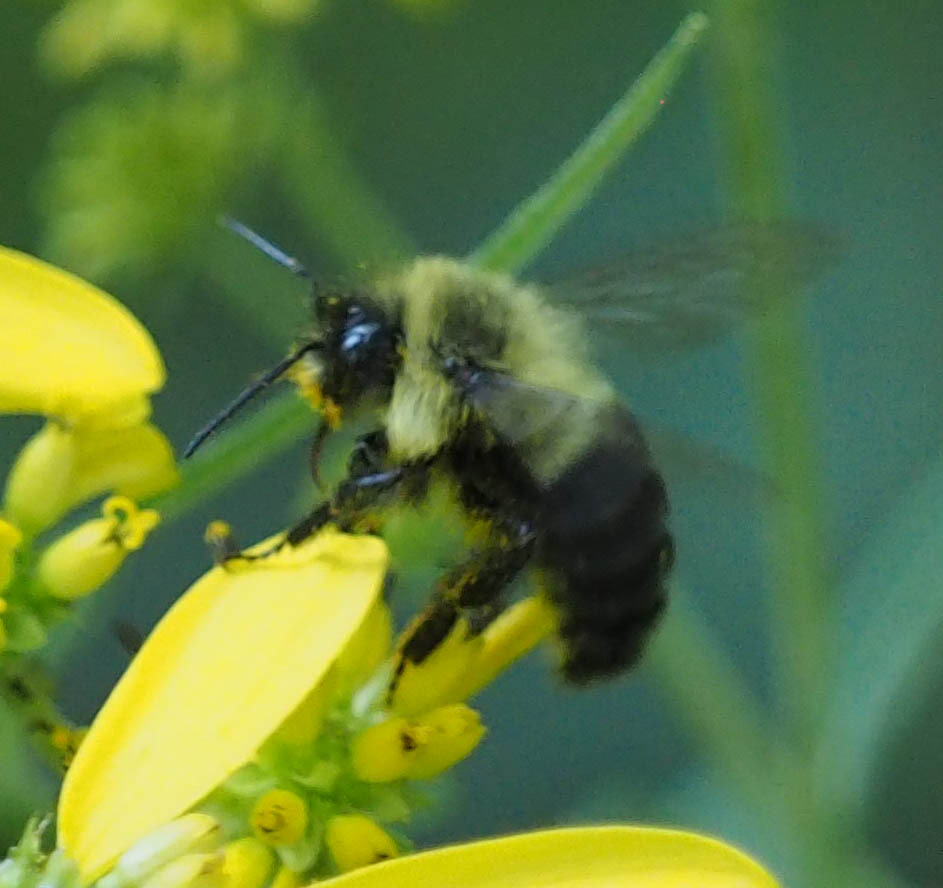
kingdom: Animalia
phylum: Arthropoda
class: Insecta
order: Hymenoptera
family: Apidae
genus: Bombus
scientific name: Bombus impatiens
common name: Common eastern bumble bee
